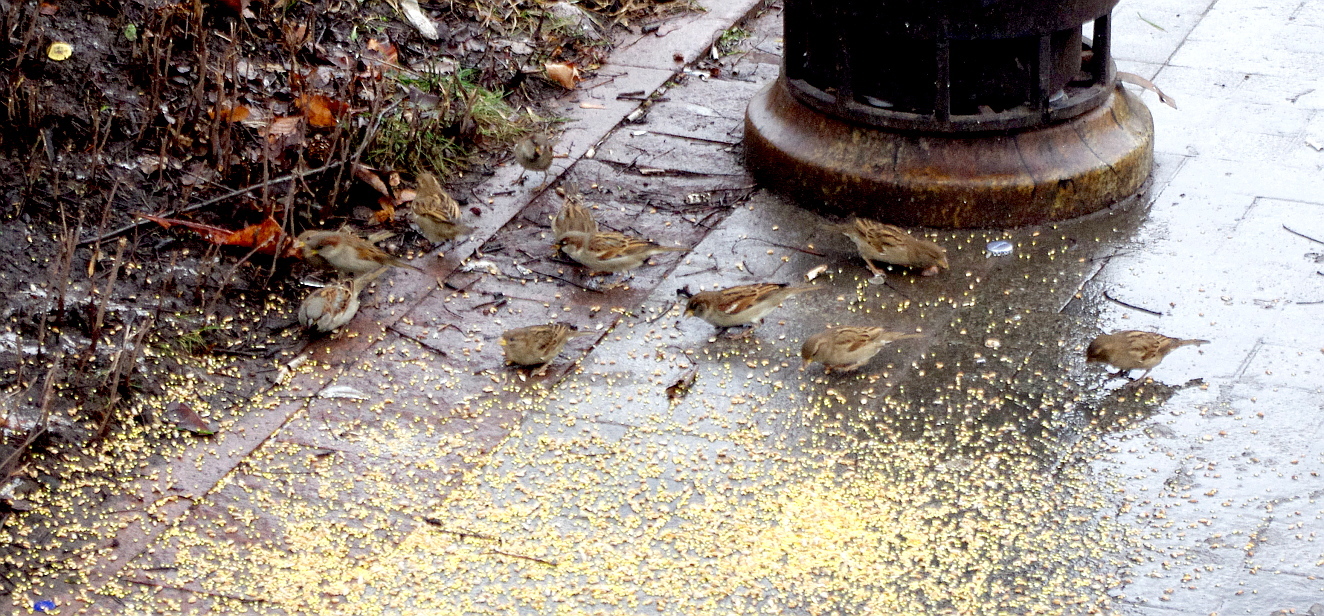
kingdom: Animalia
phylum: Chordata
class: Aves
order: Passeriformes
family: Passeridae
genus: Passer
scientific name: Passer domesticus
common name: House sparrow
